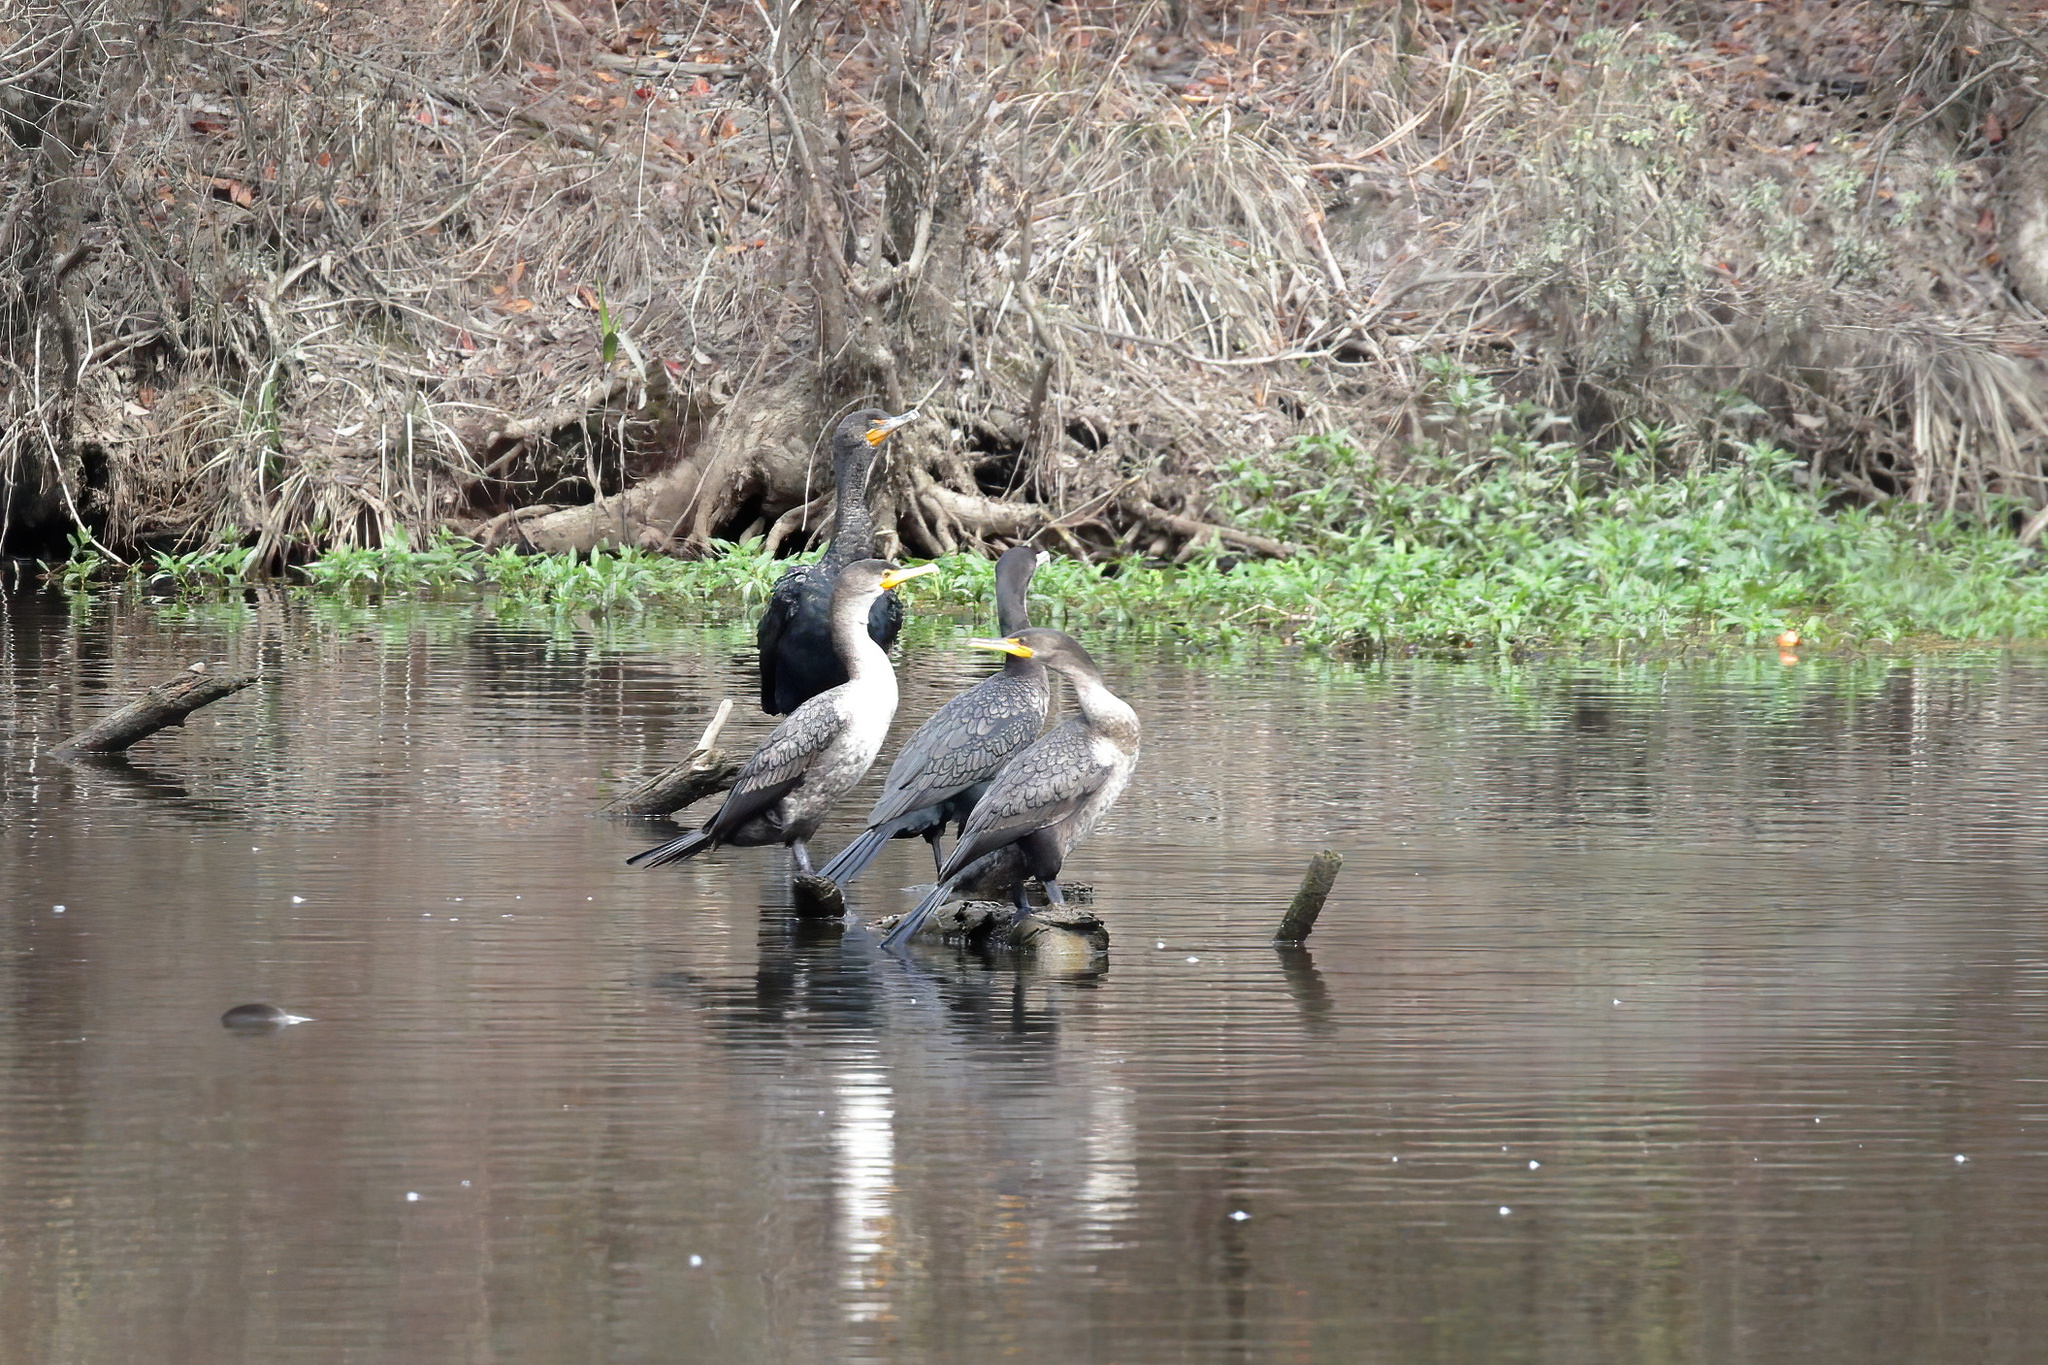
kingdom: Animalia
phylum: Chordata
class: Aves
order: Suliformes
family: Phalacrocoracidae
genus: Phalacrocorax
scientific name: Phalacrocorax auritus
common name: Double-crested cormorant
